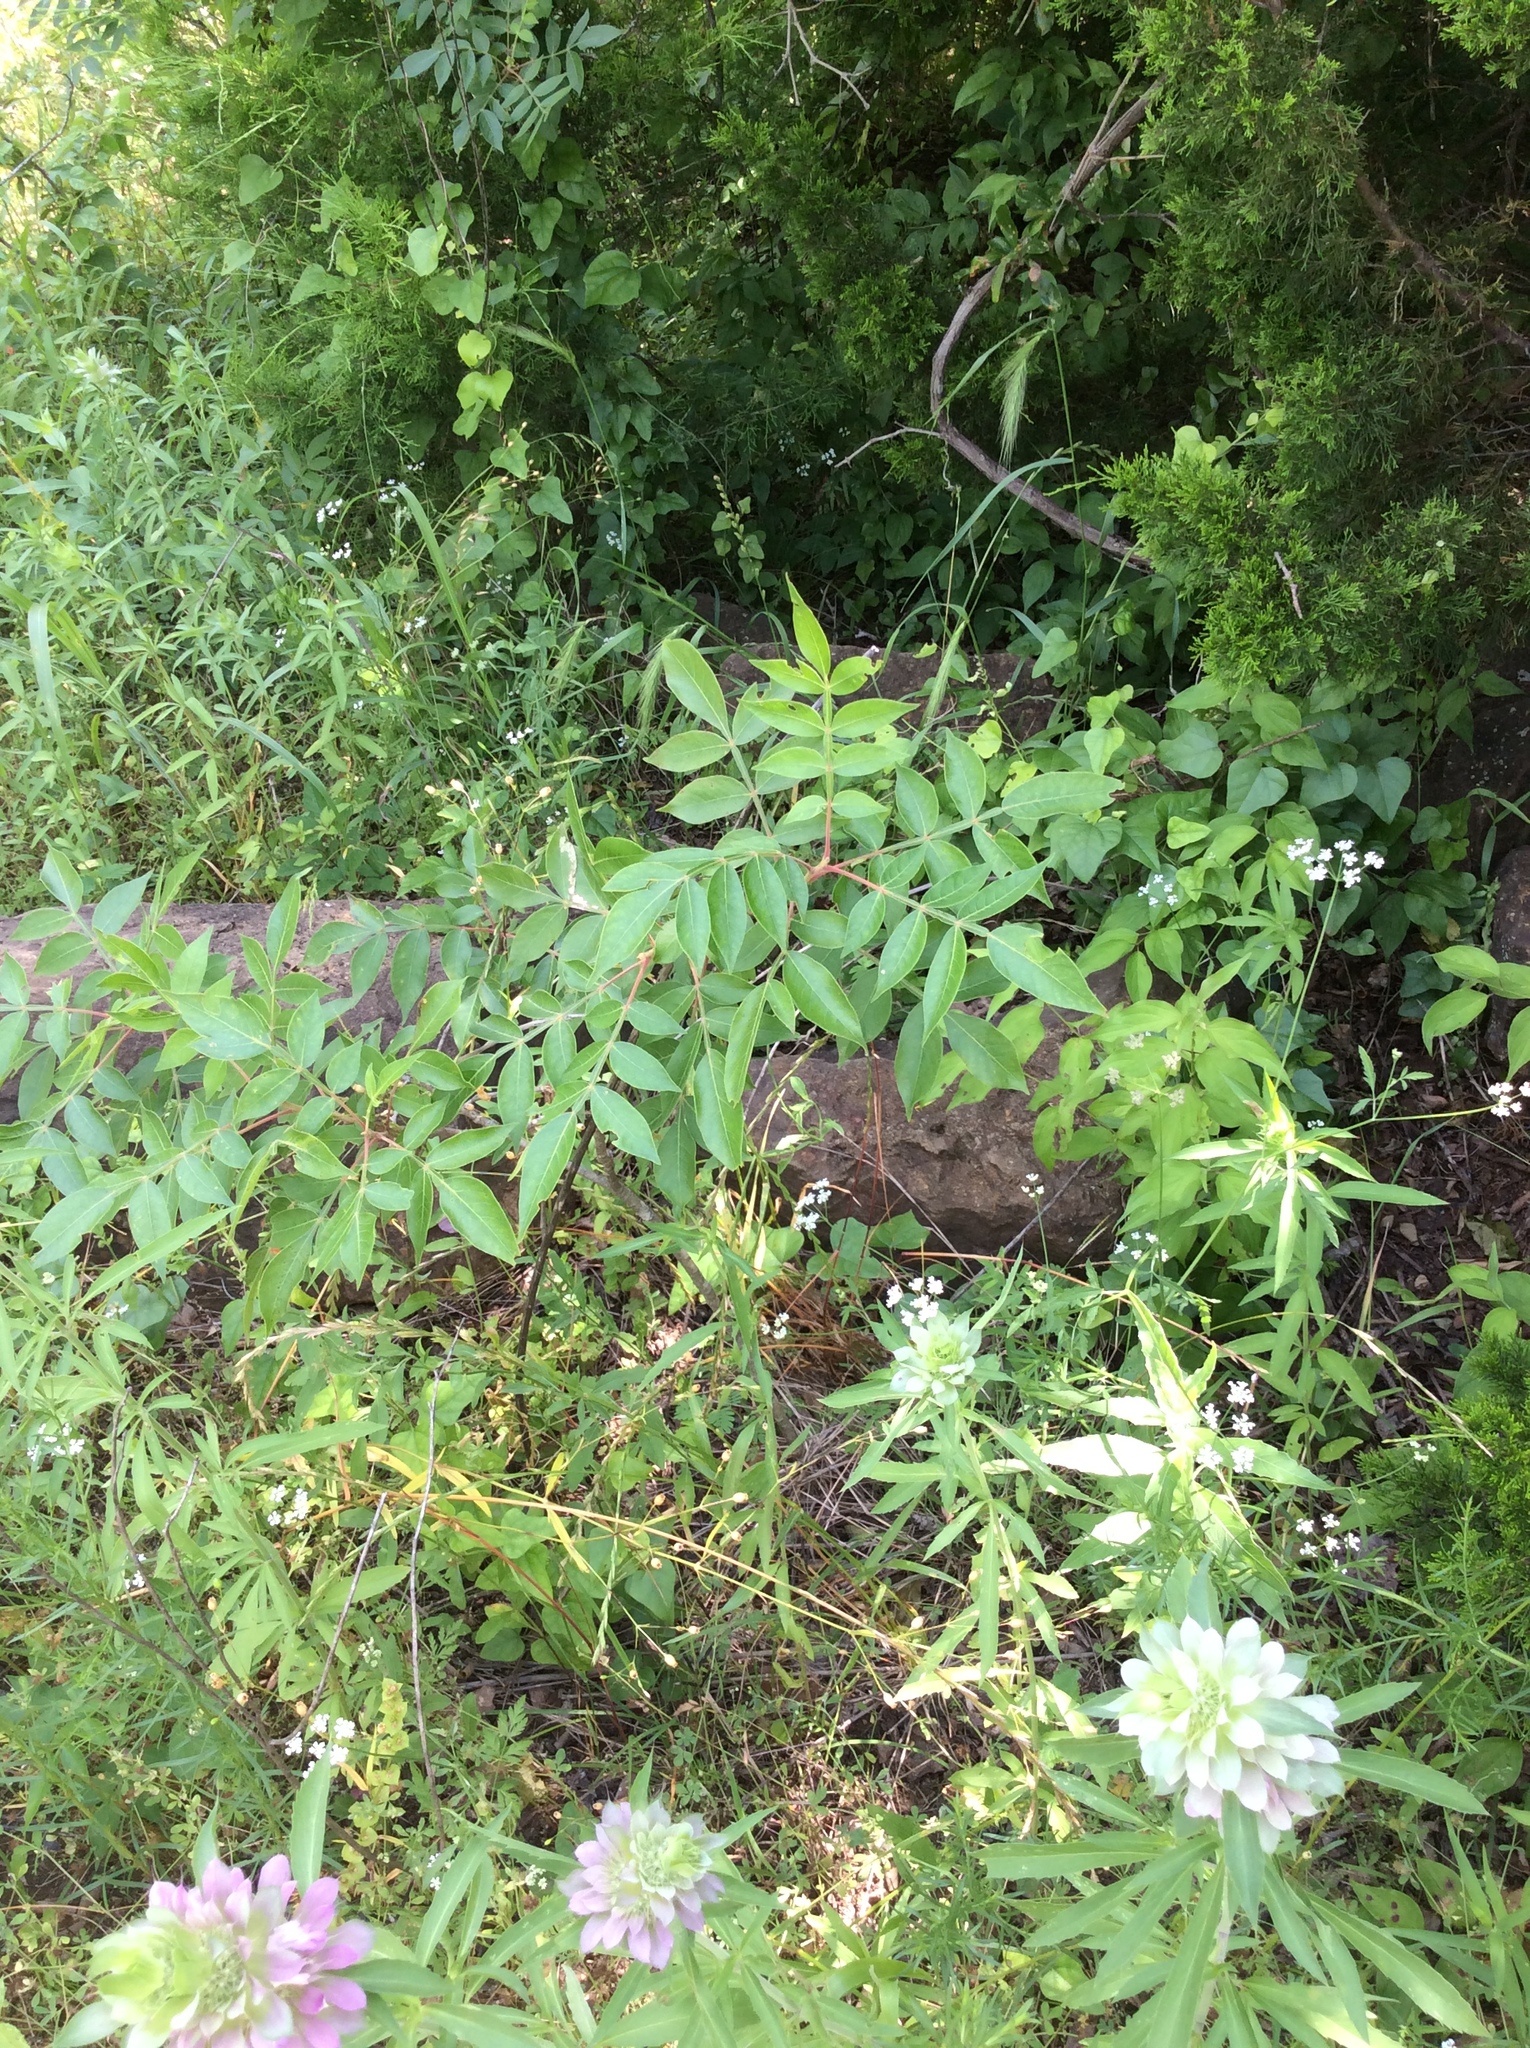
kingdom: Plantae
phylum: Tracheophyta
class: Magnoliopsida
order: Sapindales
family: Anacardiaceae
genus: Rhus
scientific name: Rhus copallina
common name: Shining sumac
